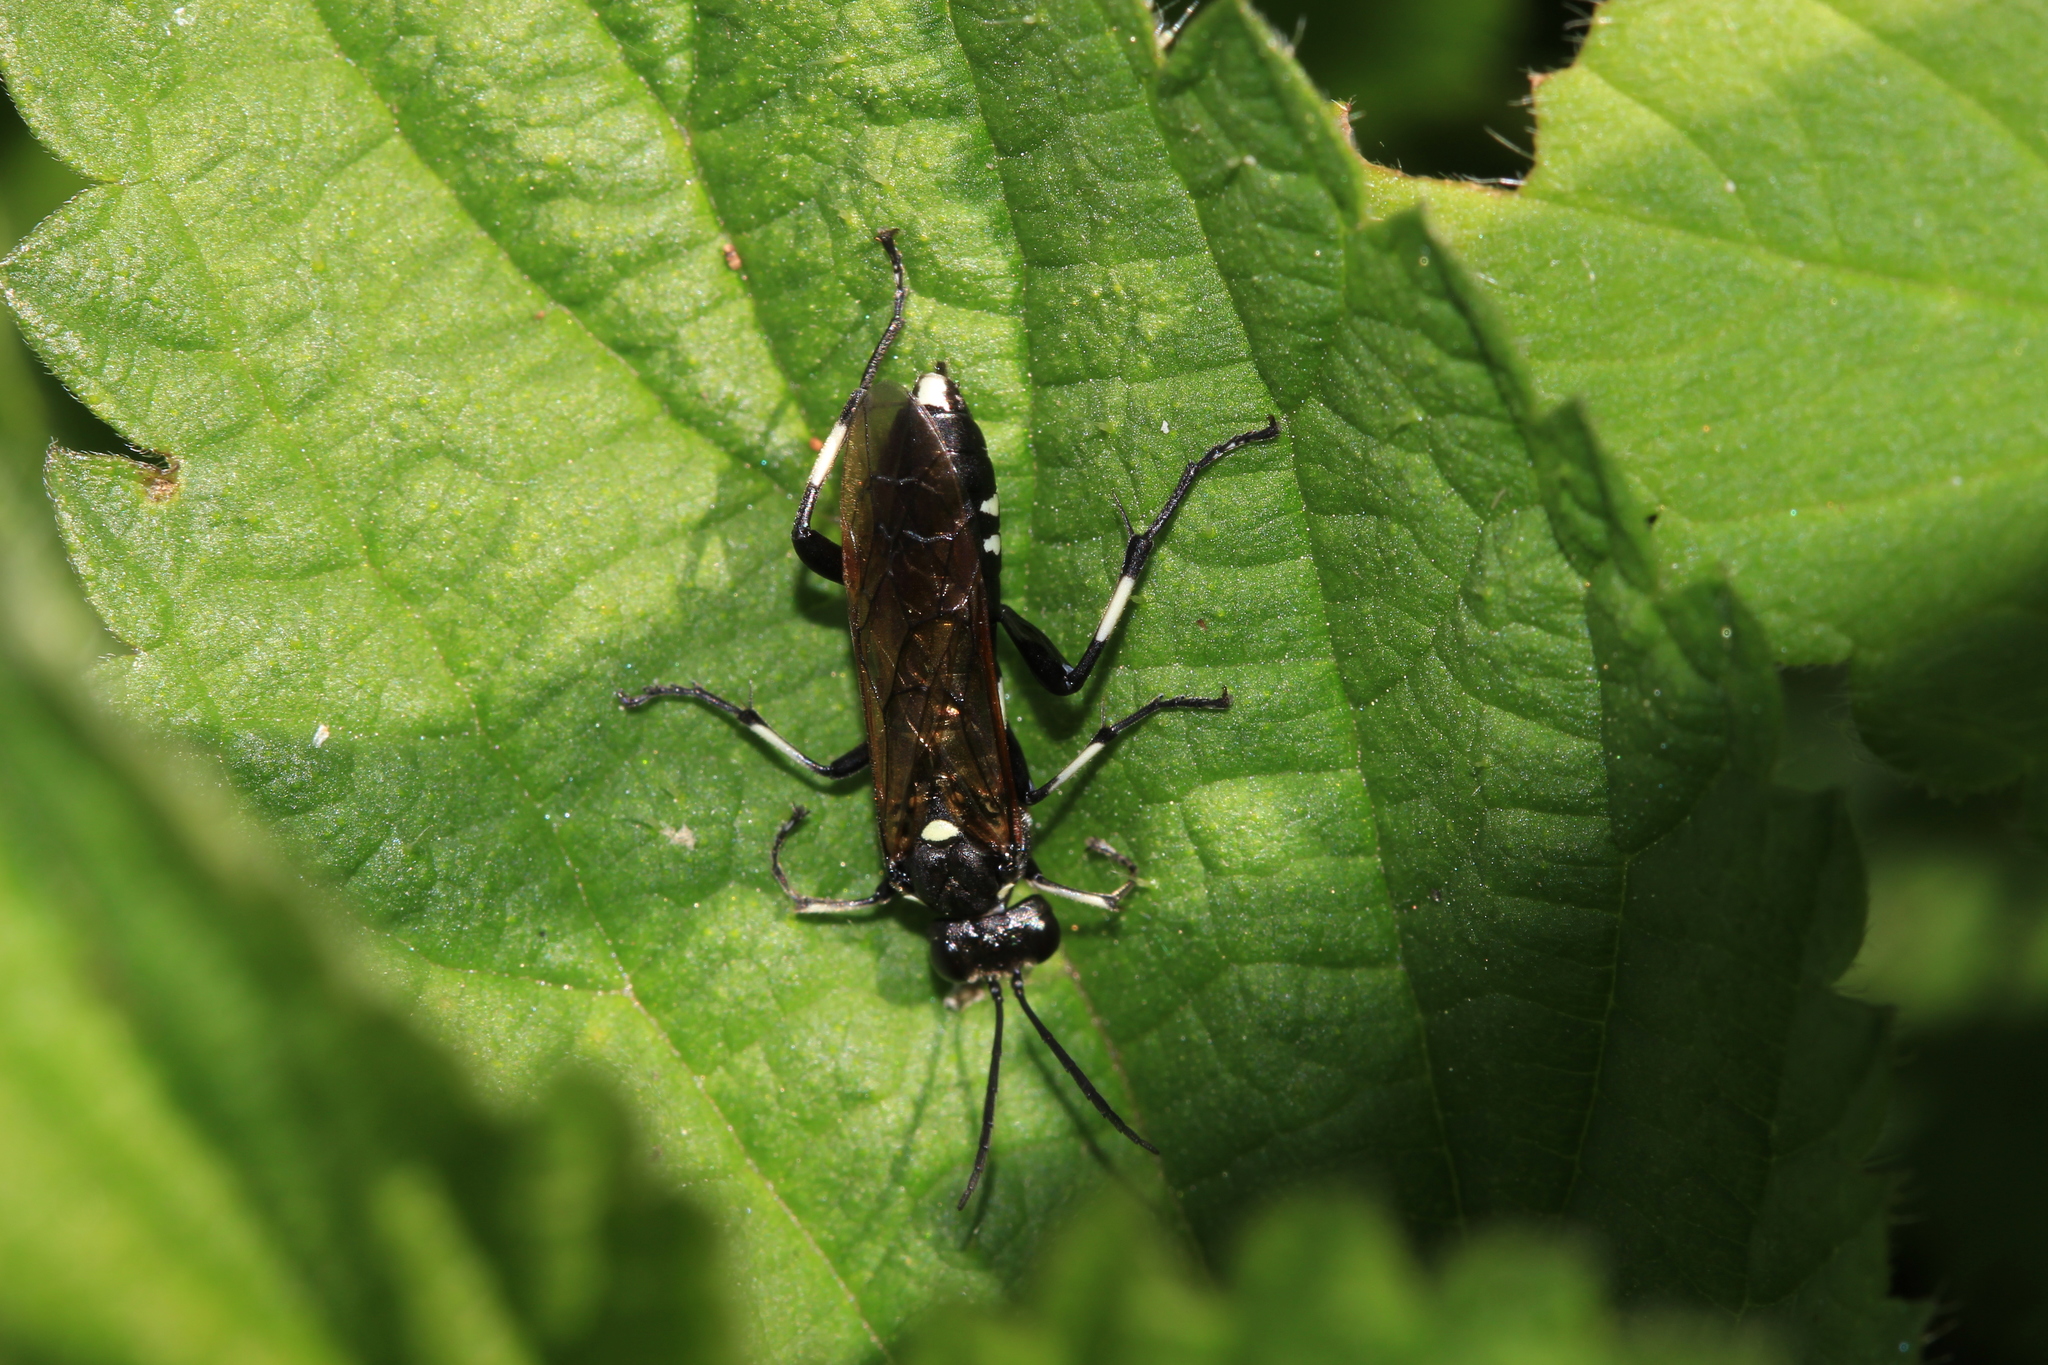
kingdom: Animalia
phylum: Arthropoda
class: Insecta
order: Hymenoptera
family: Tenthredinidae
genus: Macrophya
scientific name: Macrophya duodecimpunctata
